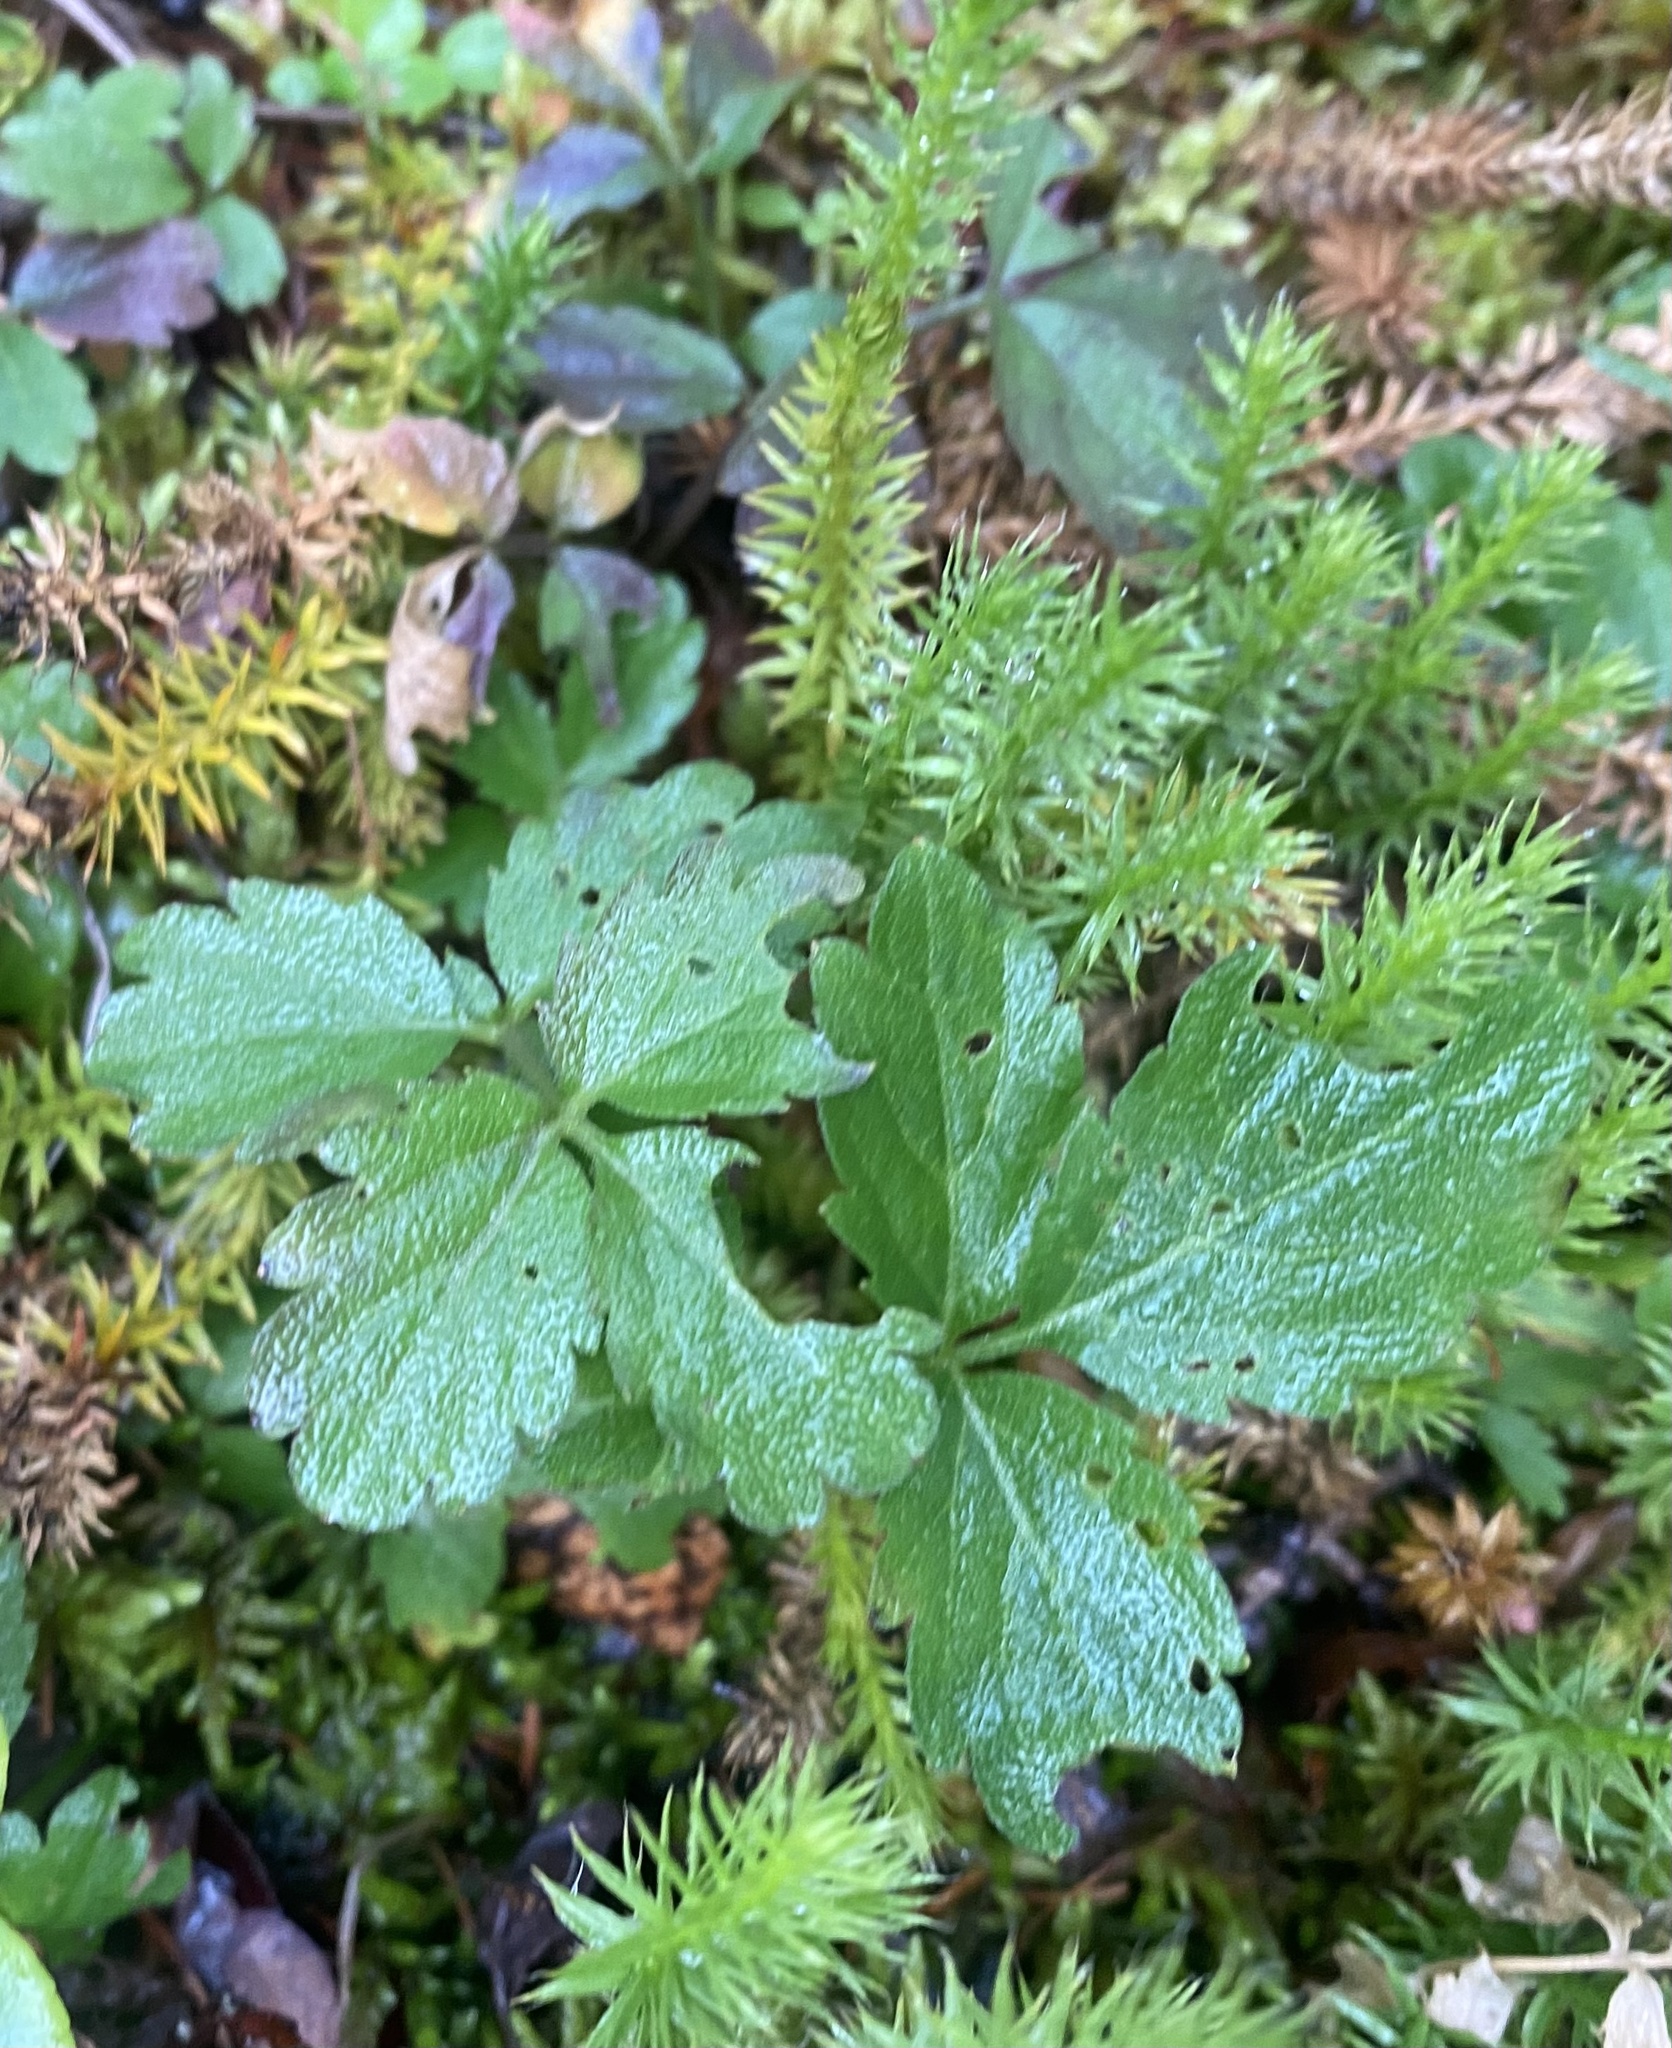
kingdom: Plantae
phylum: Tracheophyta
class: Magnoliopsida
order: Brassicales
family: Brassicaceae
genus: Cardamine
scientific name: Cardamine macrophylla
